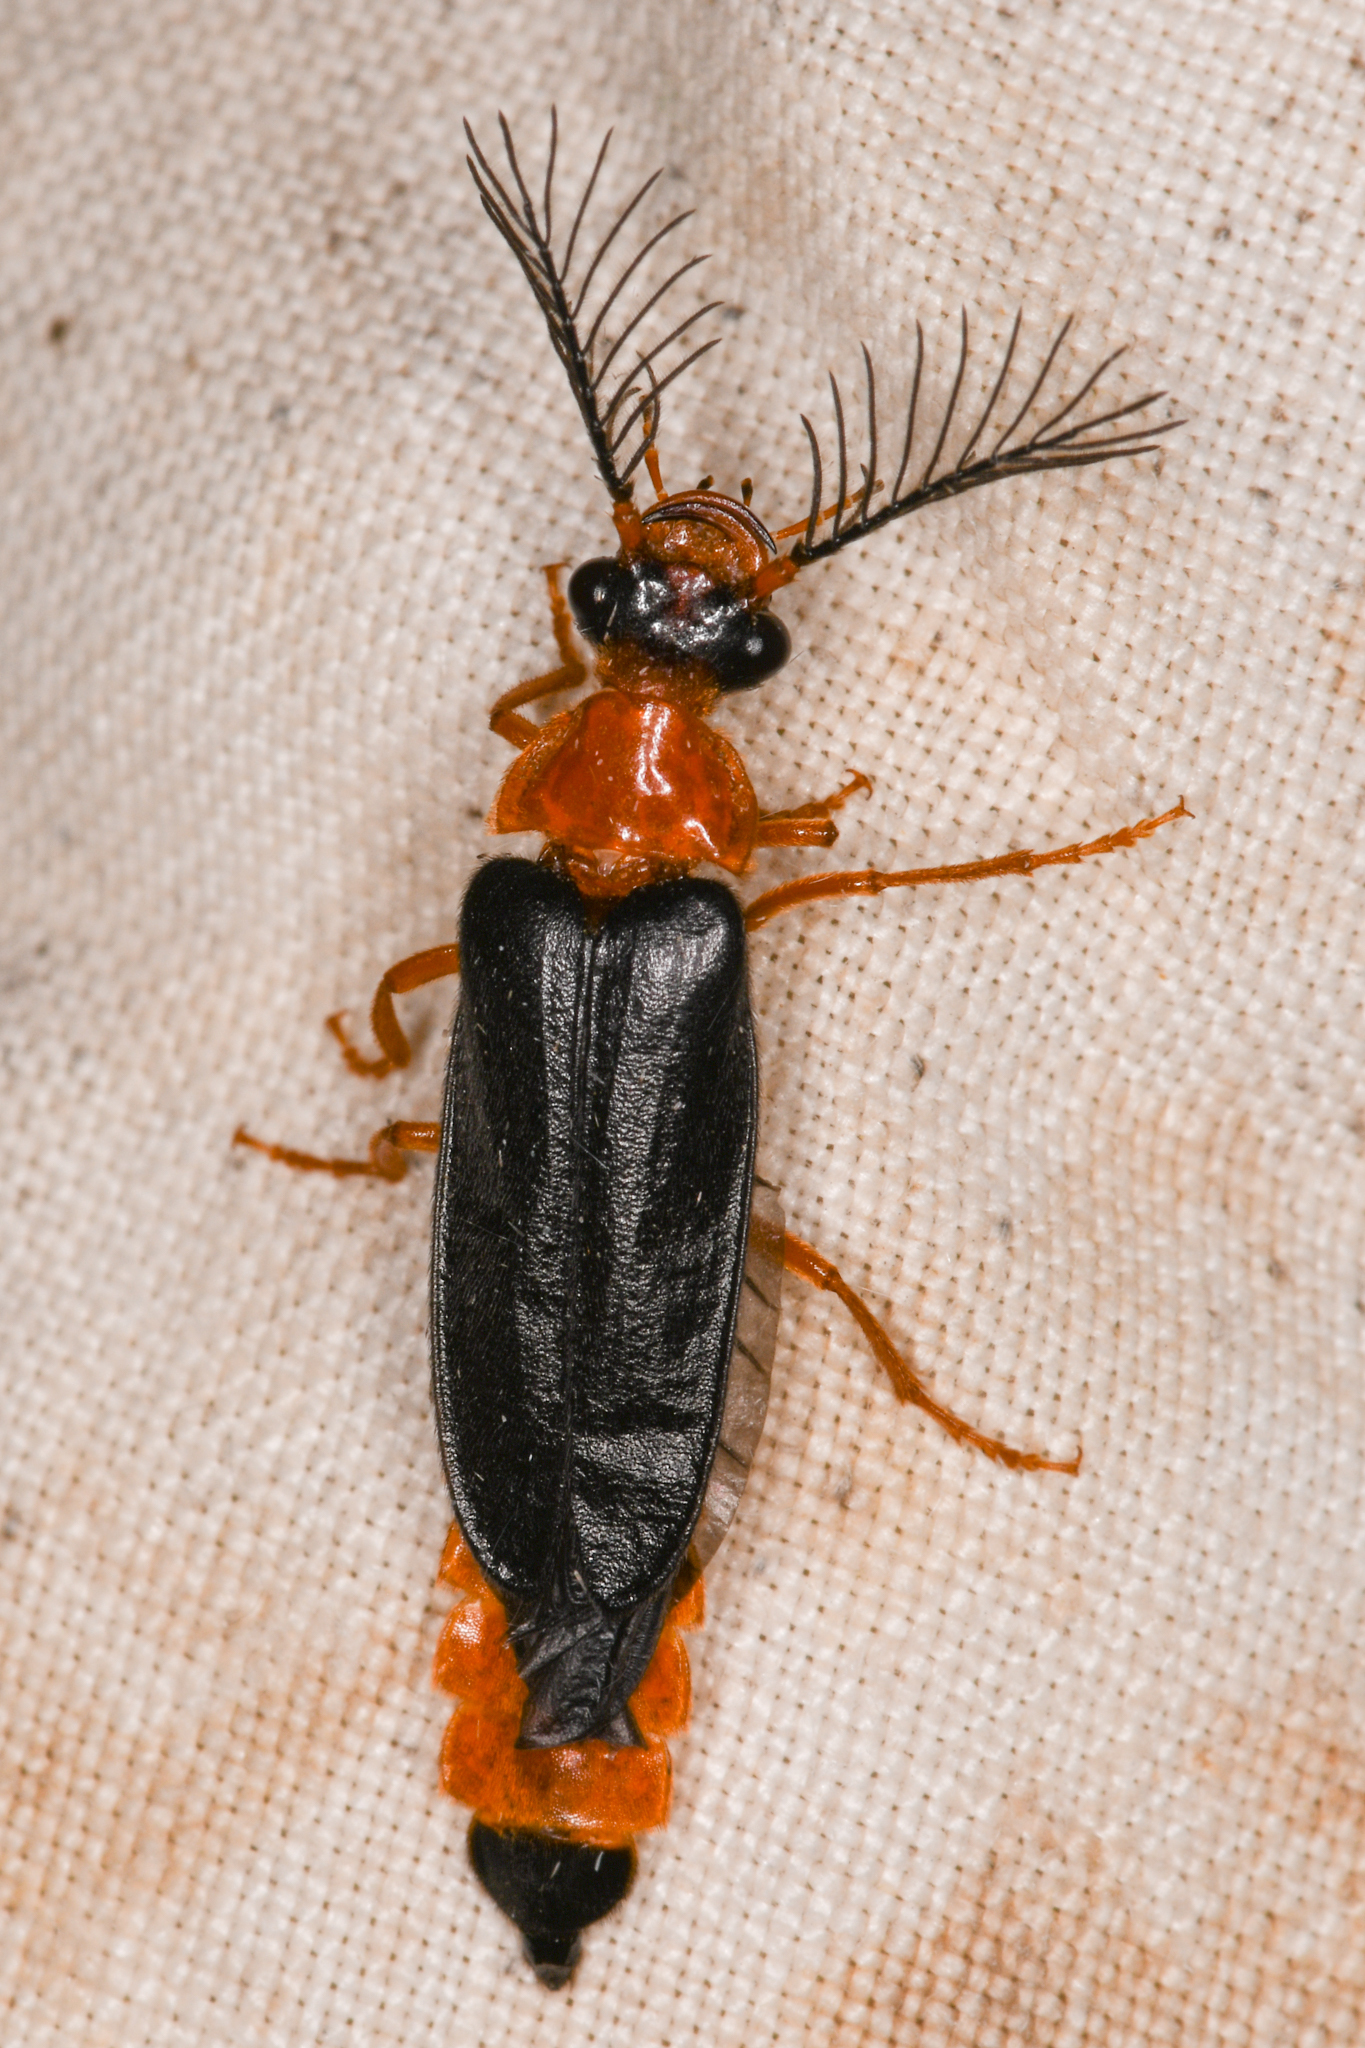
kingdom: Animalia
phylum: Arthropoda
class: Insecta
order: Coleoptera
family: Phengodidae
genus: Zarhipis
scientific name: Zarhipis integripennis
